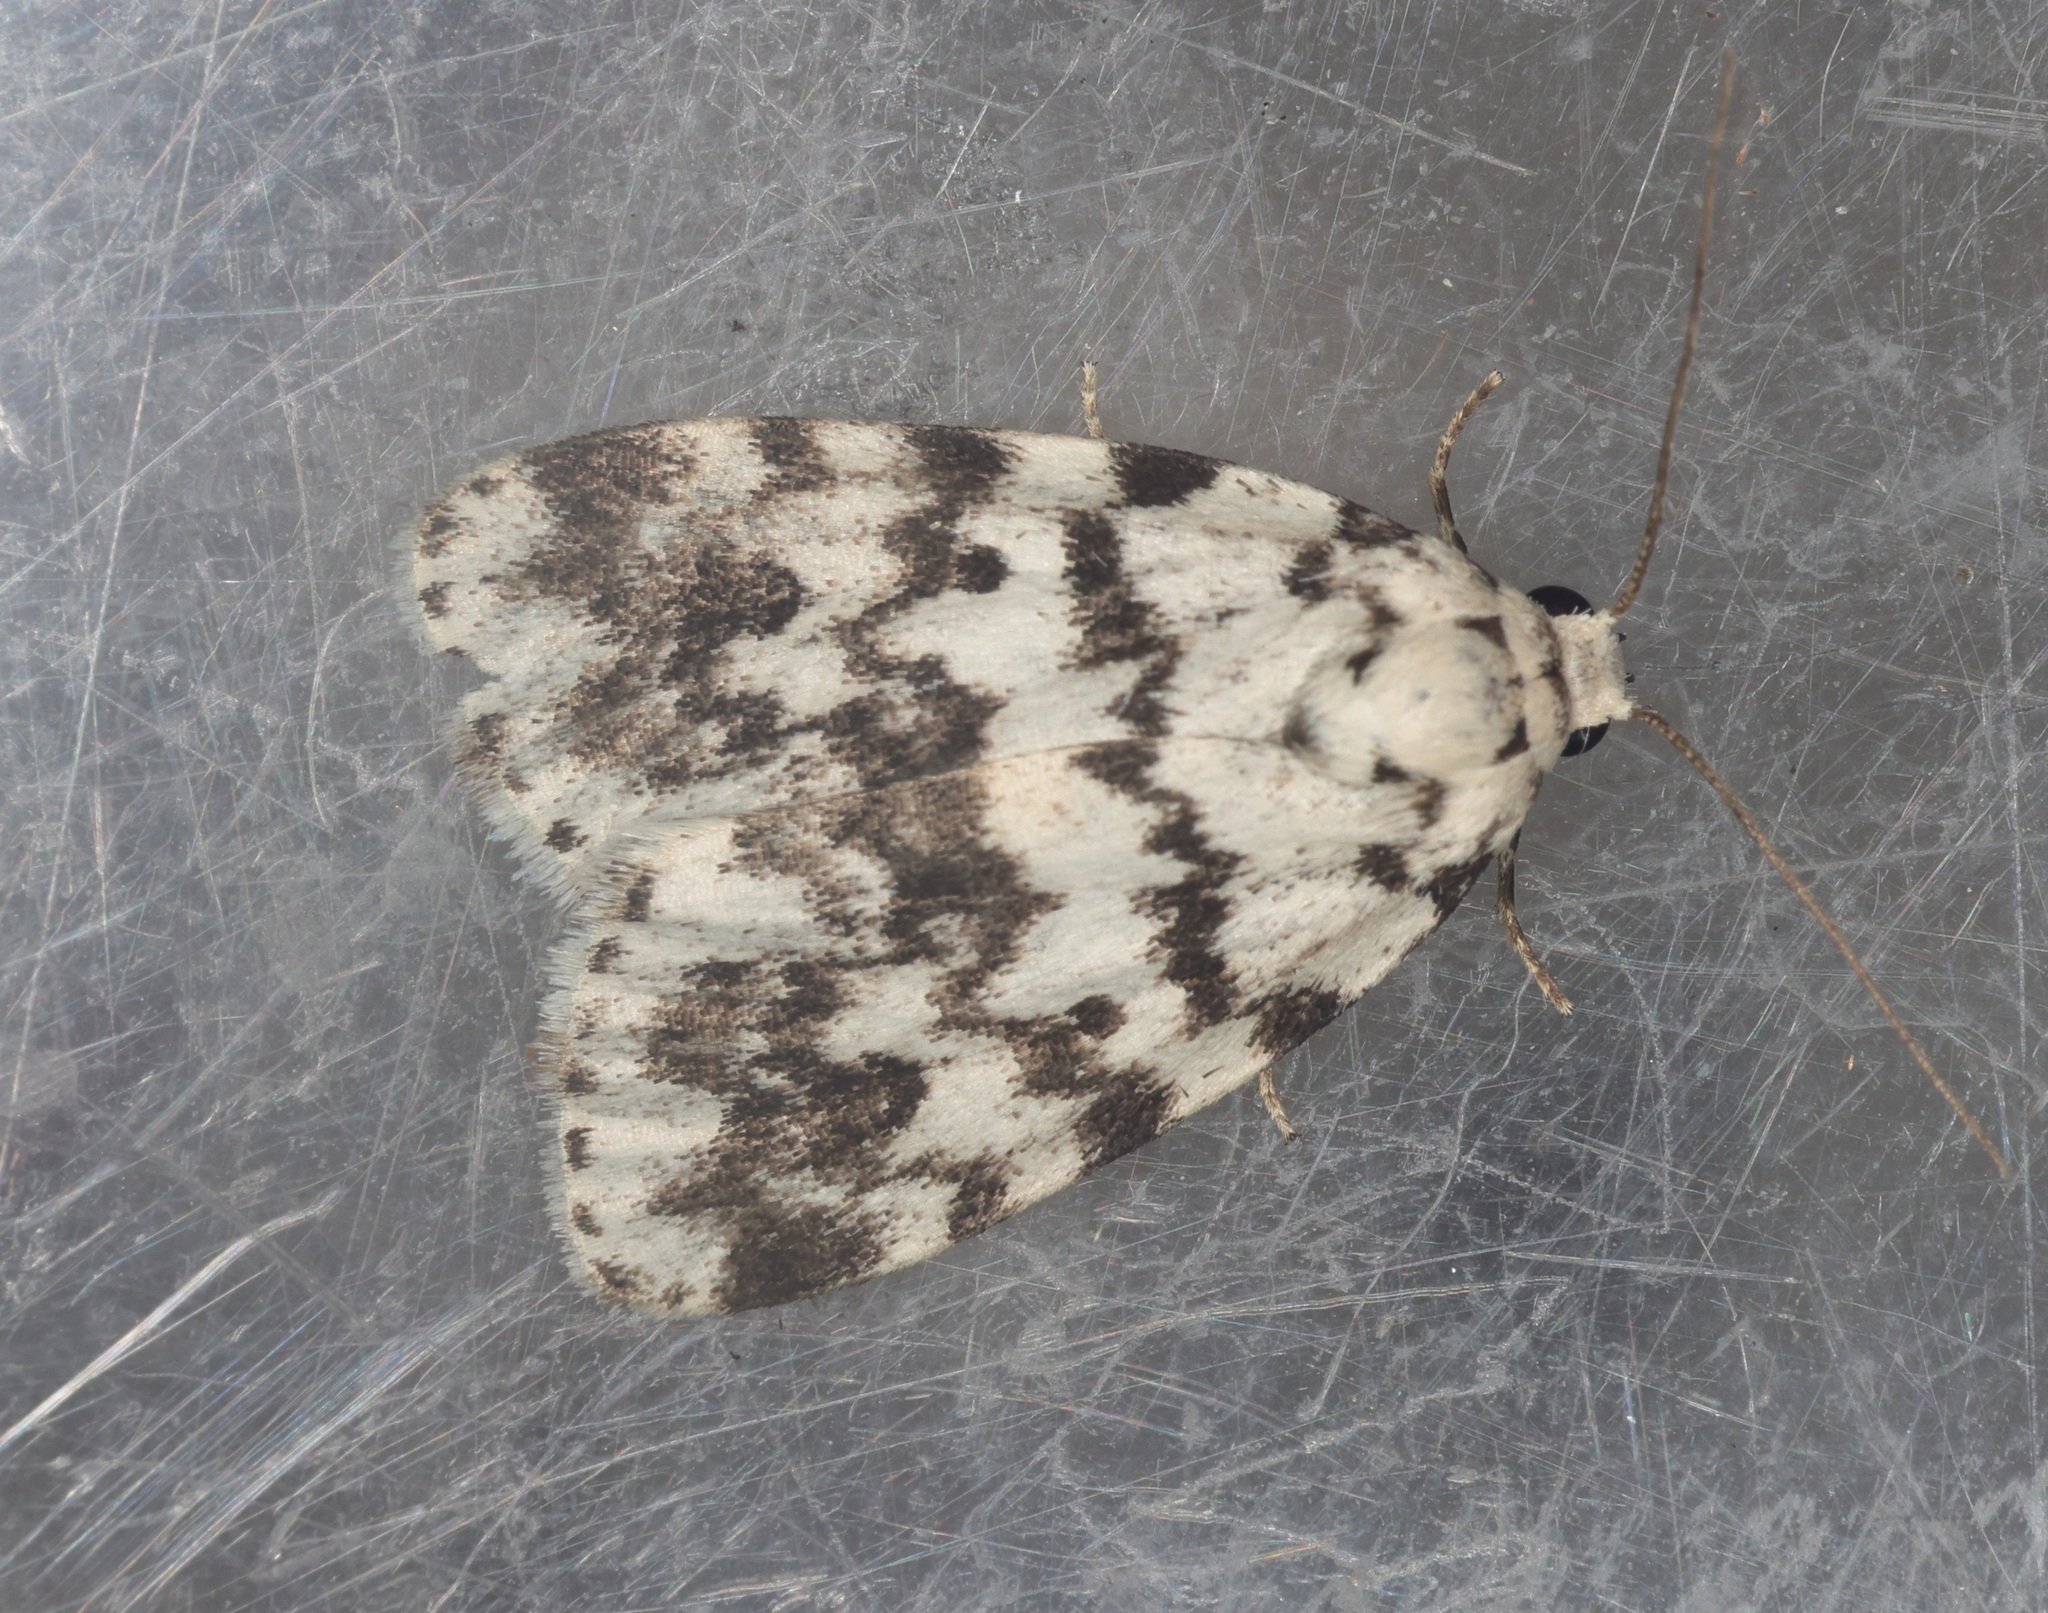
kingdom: Animalia
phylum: Arthropoda
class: Insecta
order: Lepidoptera
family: Erebidae
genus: Siccia
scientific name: Siccia taprobanis
